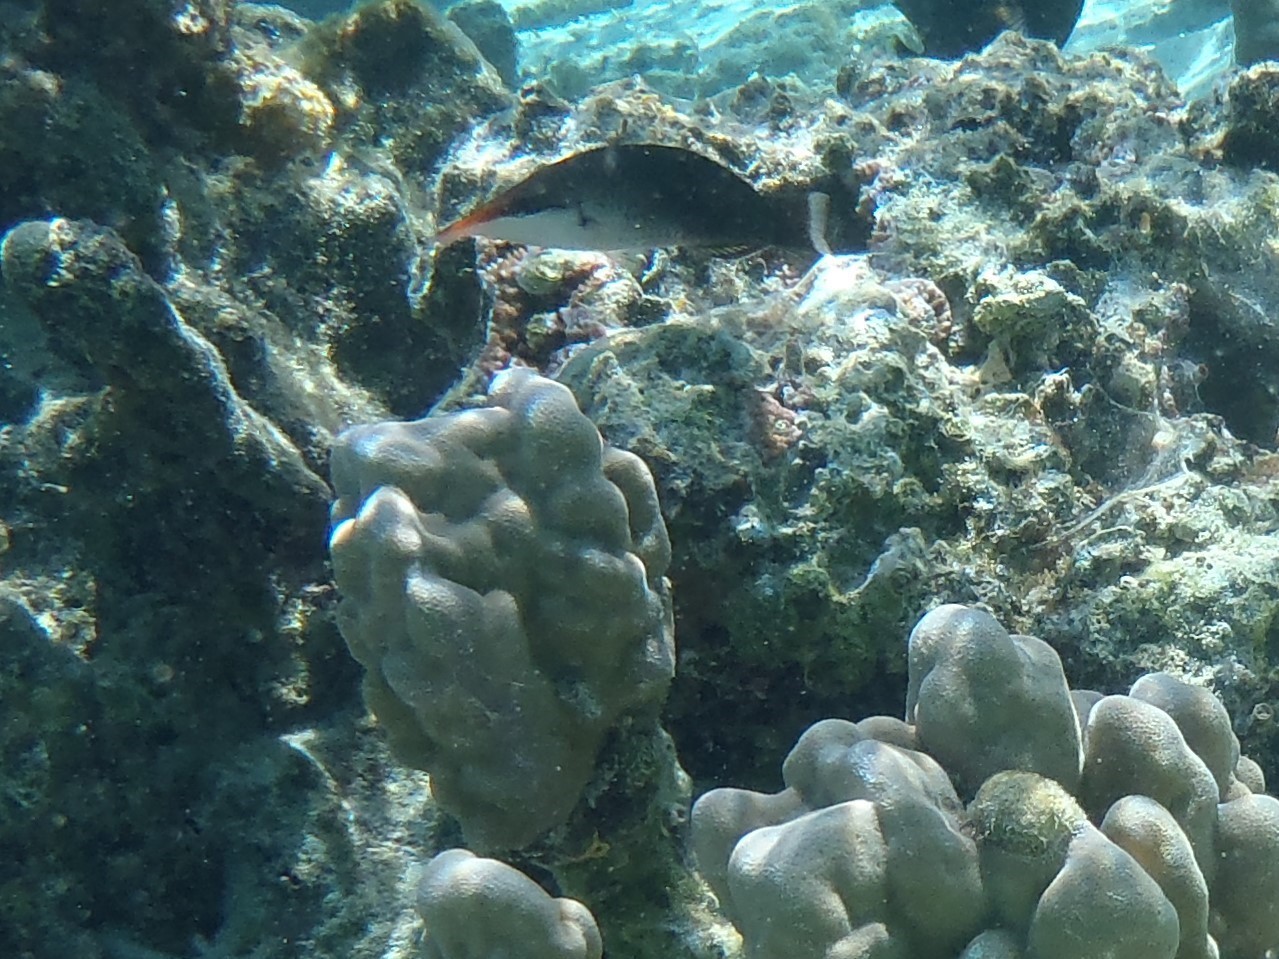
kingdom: Animalia
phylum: Chordata
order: Perciformes
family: Labridae
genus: Gomphosus
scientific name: Gomphosus varius
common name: Bird wrasse
